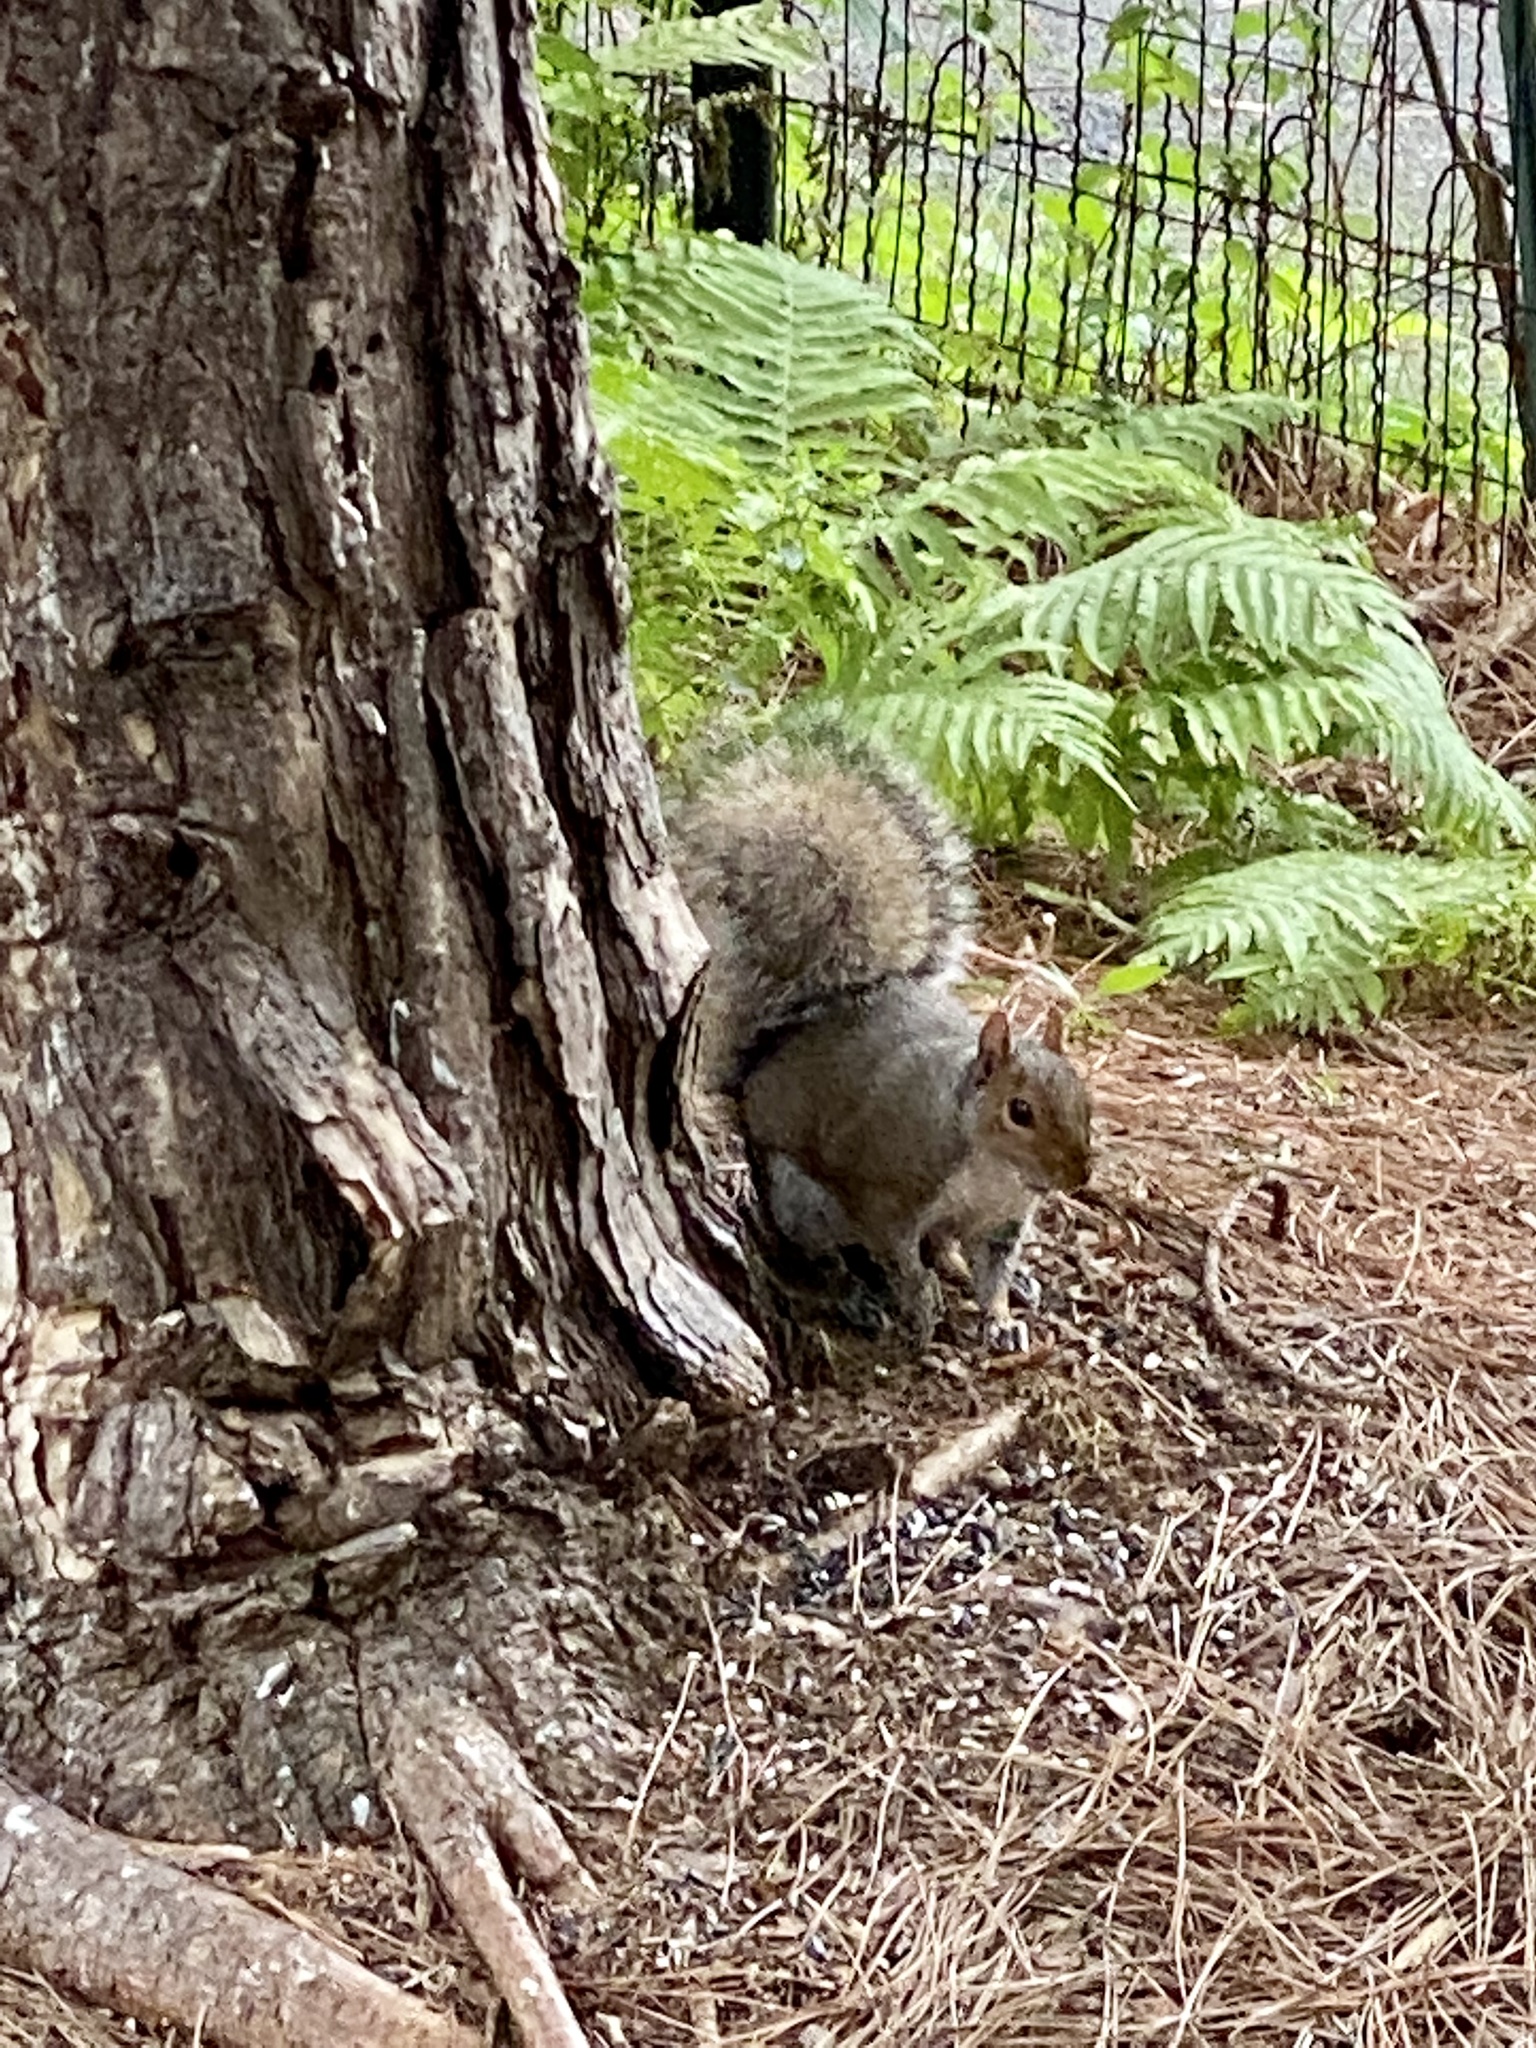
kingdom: Animalia
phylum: Chordata
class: Mammalia
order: Rodentia
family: Sciuridae
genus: Sciurus
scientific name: Sciurus carolinensis
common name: Eastern gray squirrel
